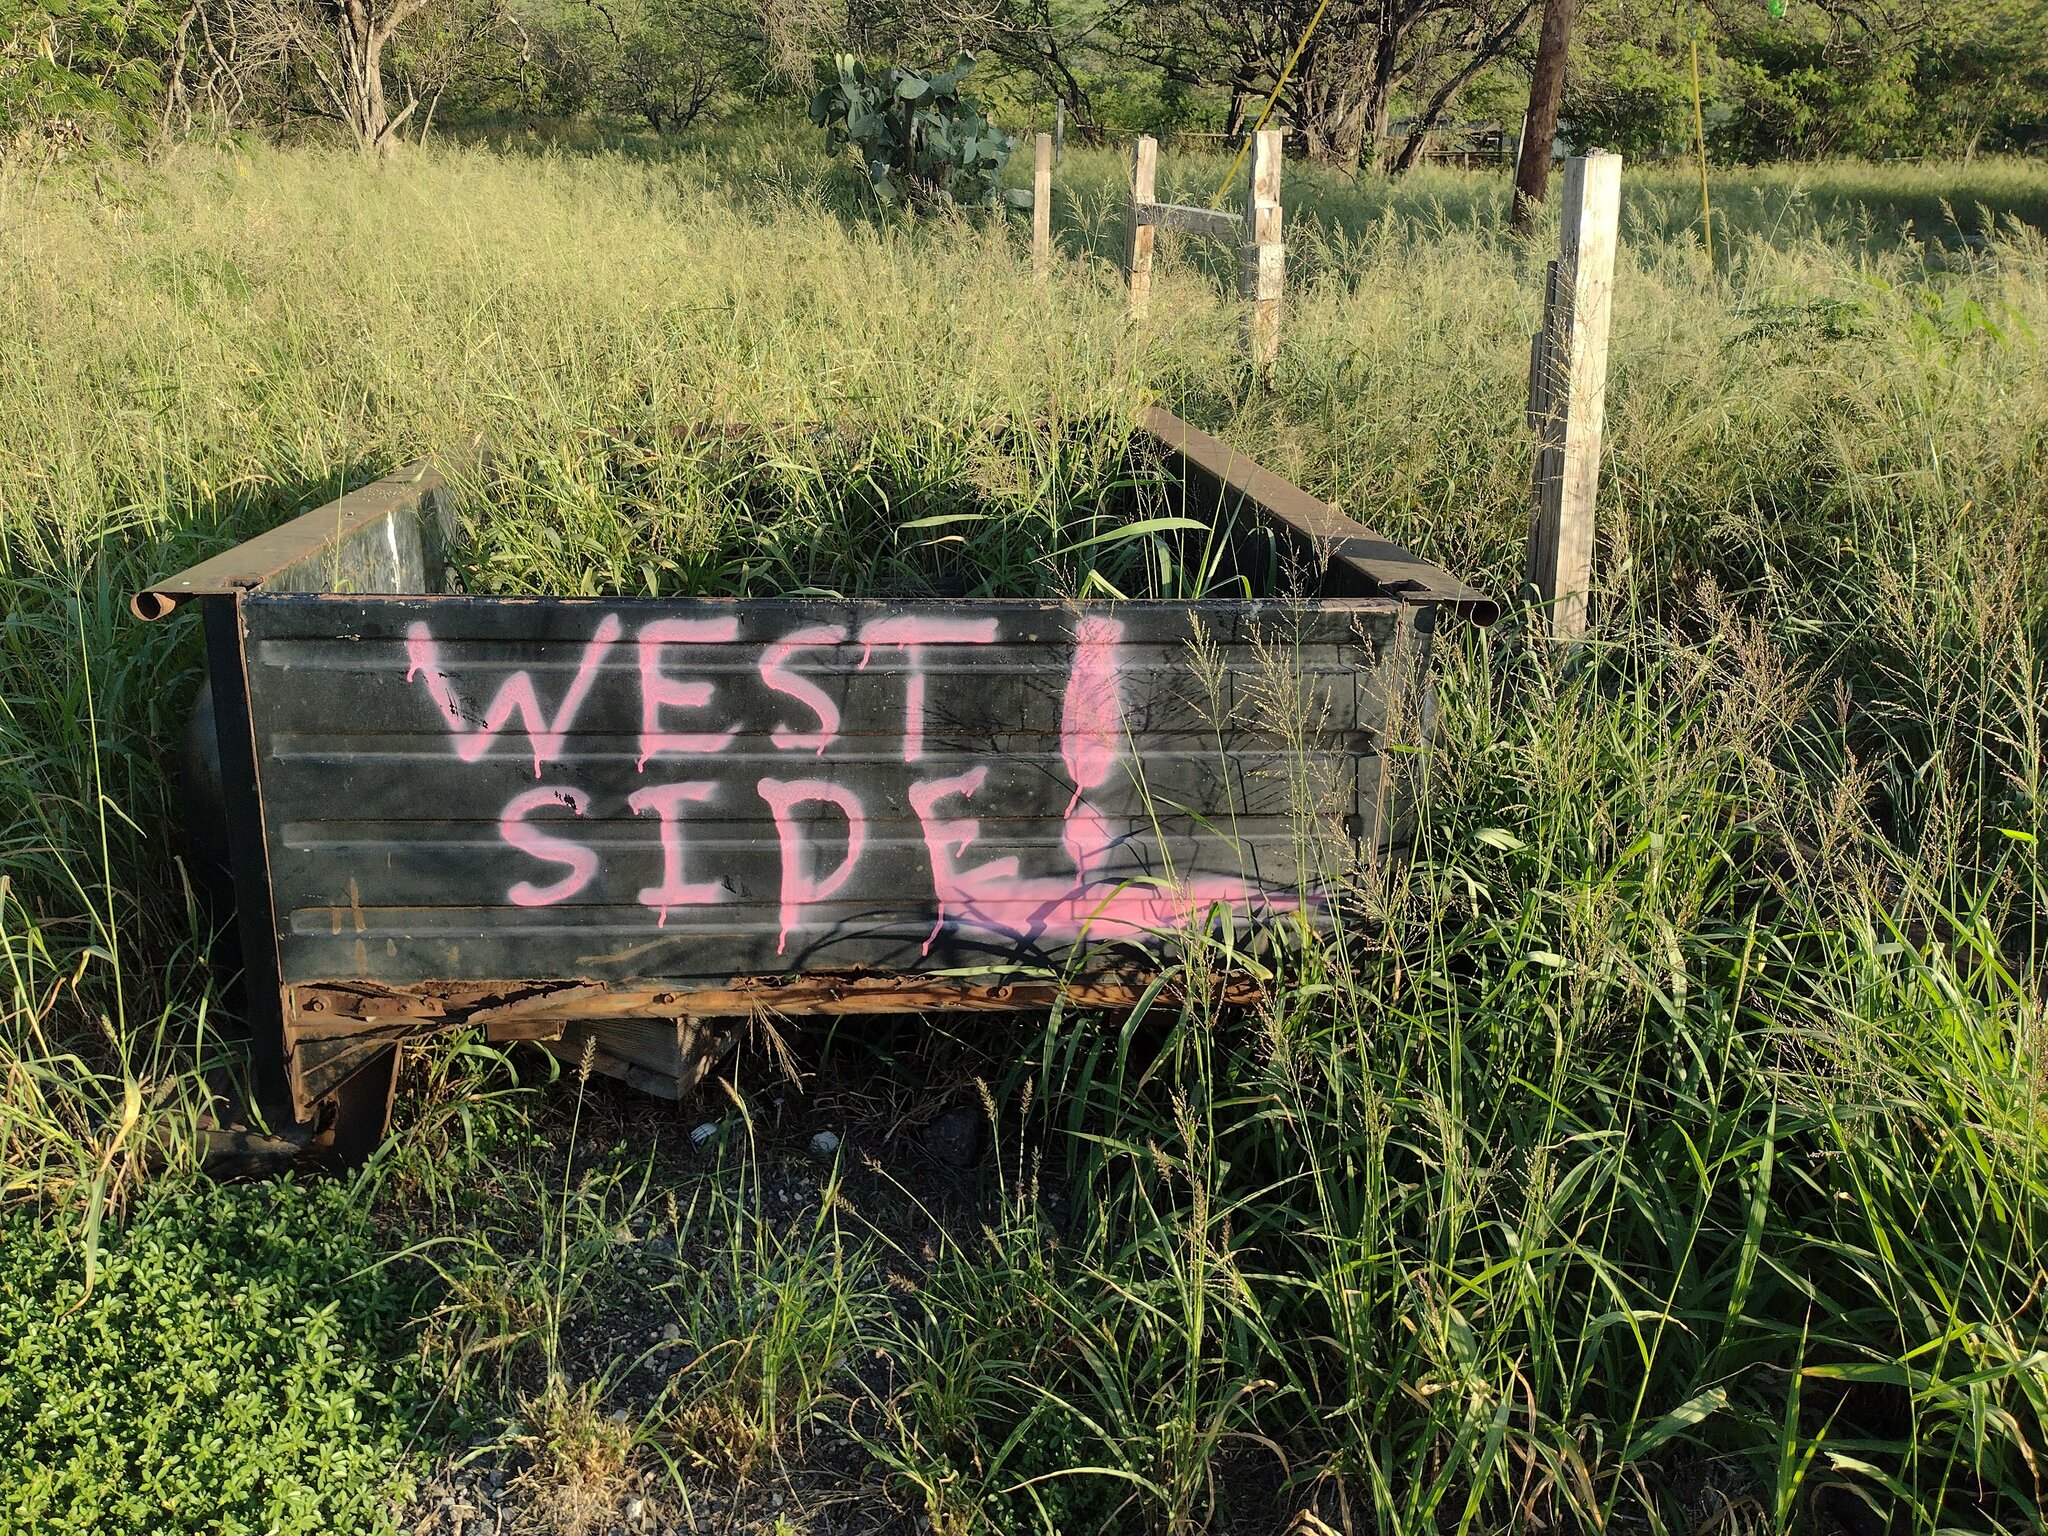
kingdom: Plantae
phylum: Tracheophyta
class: Liliopsida
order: Poales
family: Poaceae
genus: Megathyrsus
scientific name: Megathyrsus maximus
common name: Guineagrass
